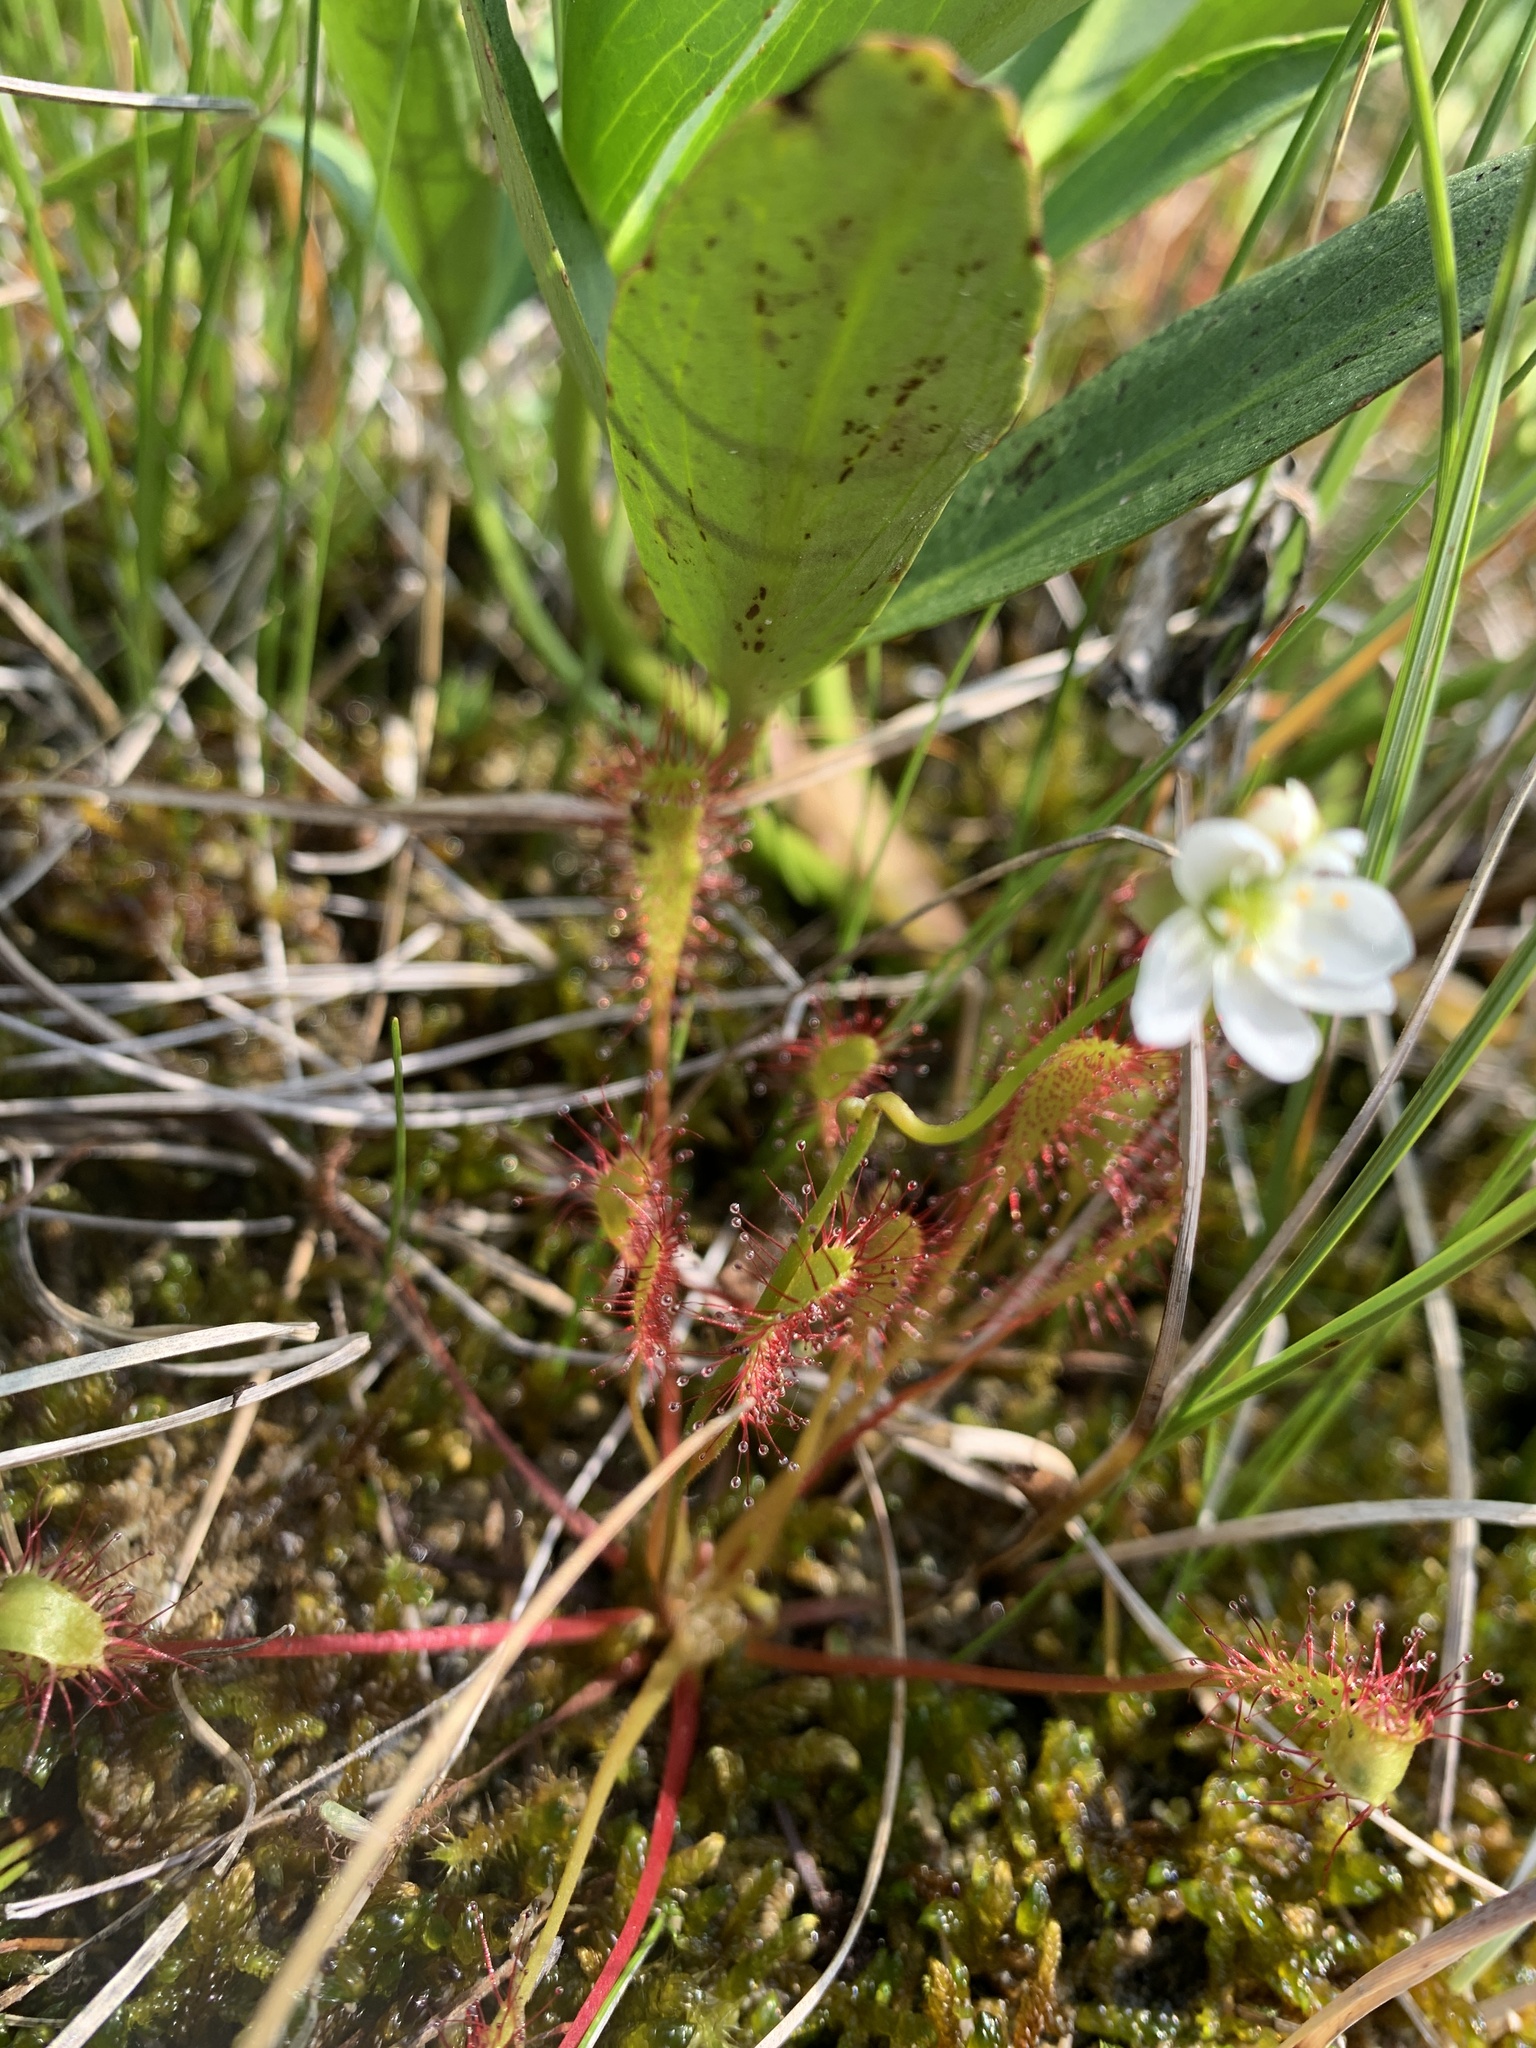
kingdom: Plantae
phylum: Tracheophyta
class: Magnoliopsida
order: Caryophyllales
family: Droseraceae
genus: Drosera
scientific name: Drosera anglica
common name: Great sundew
